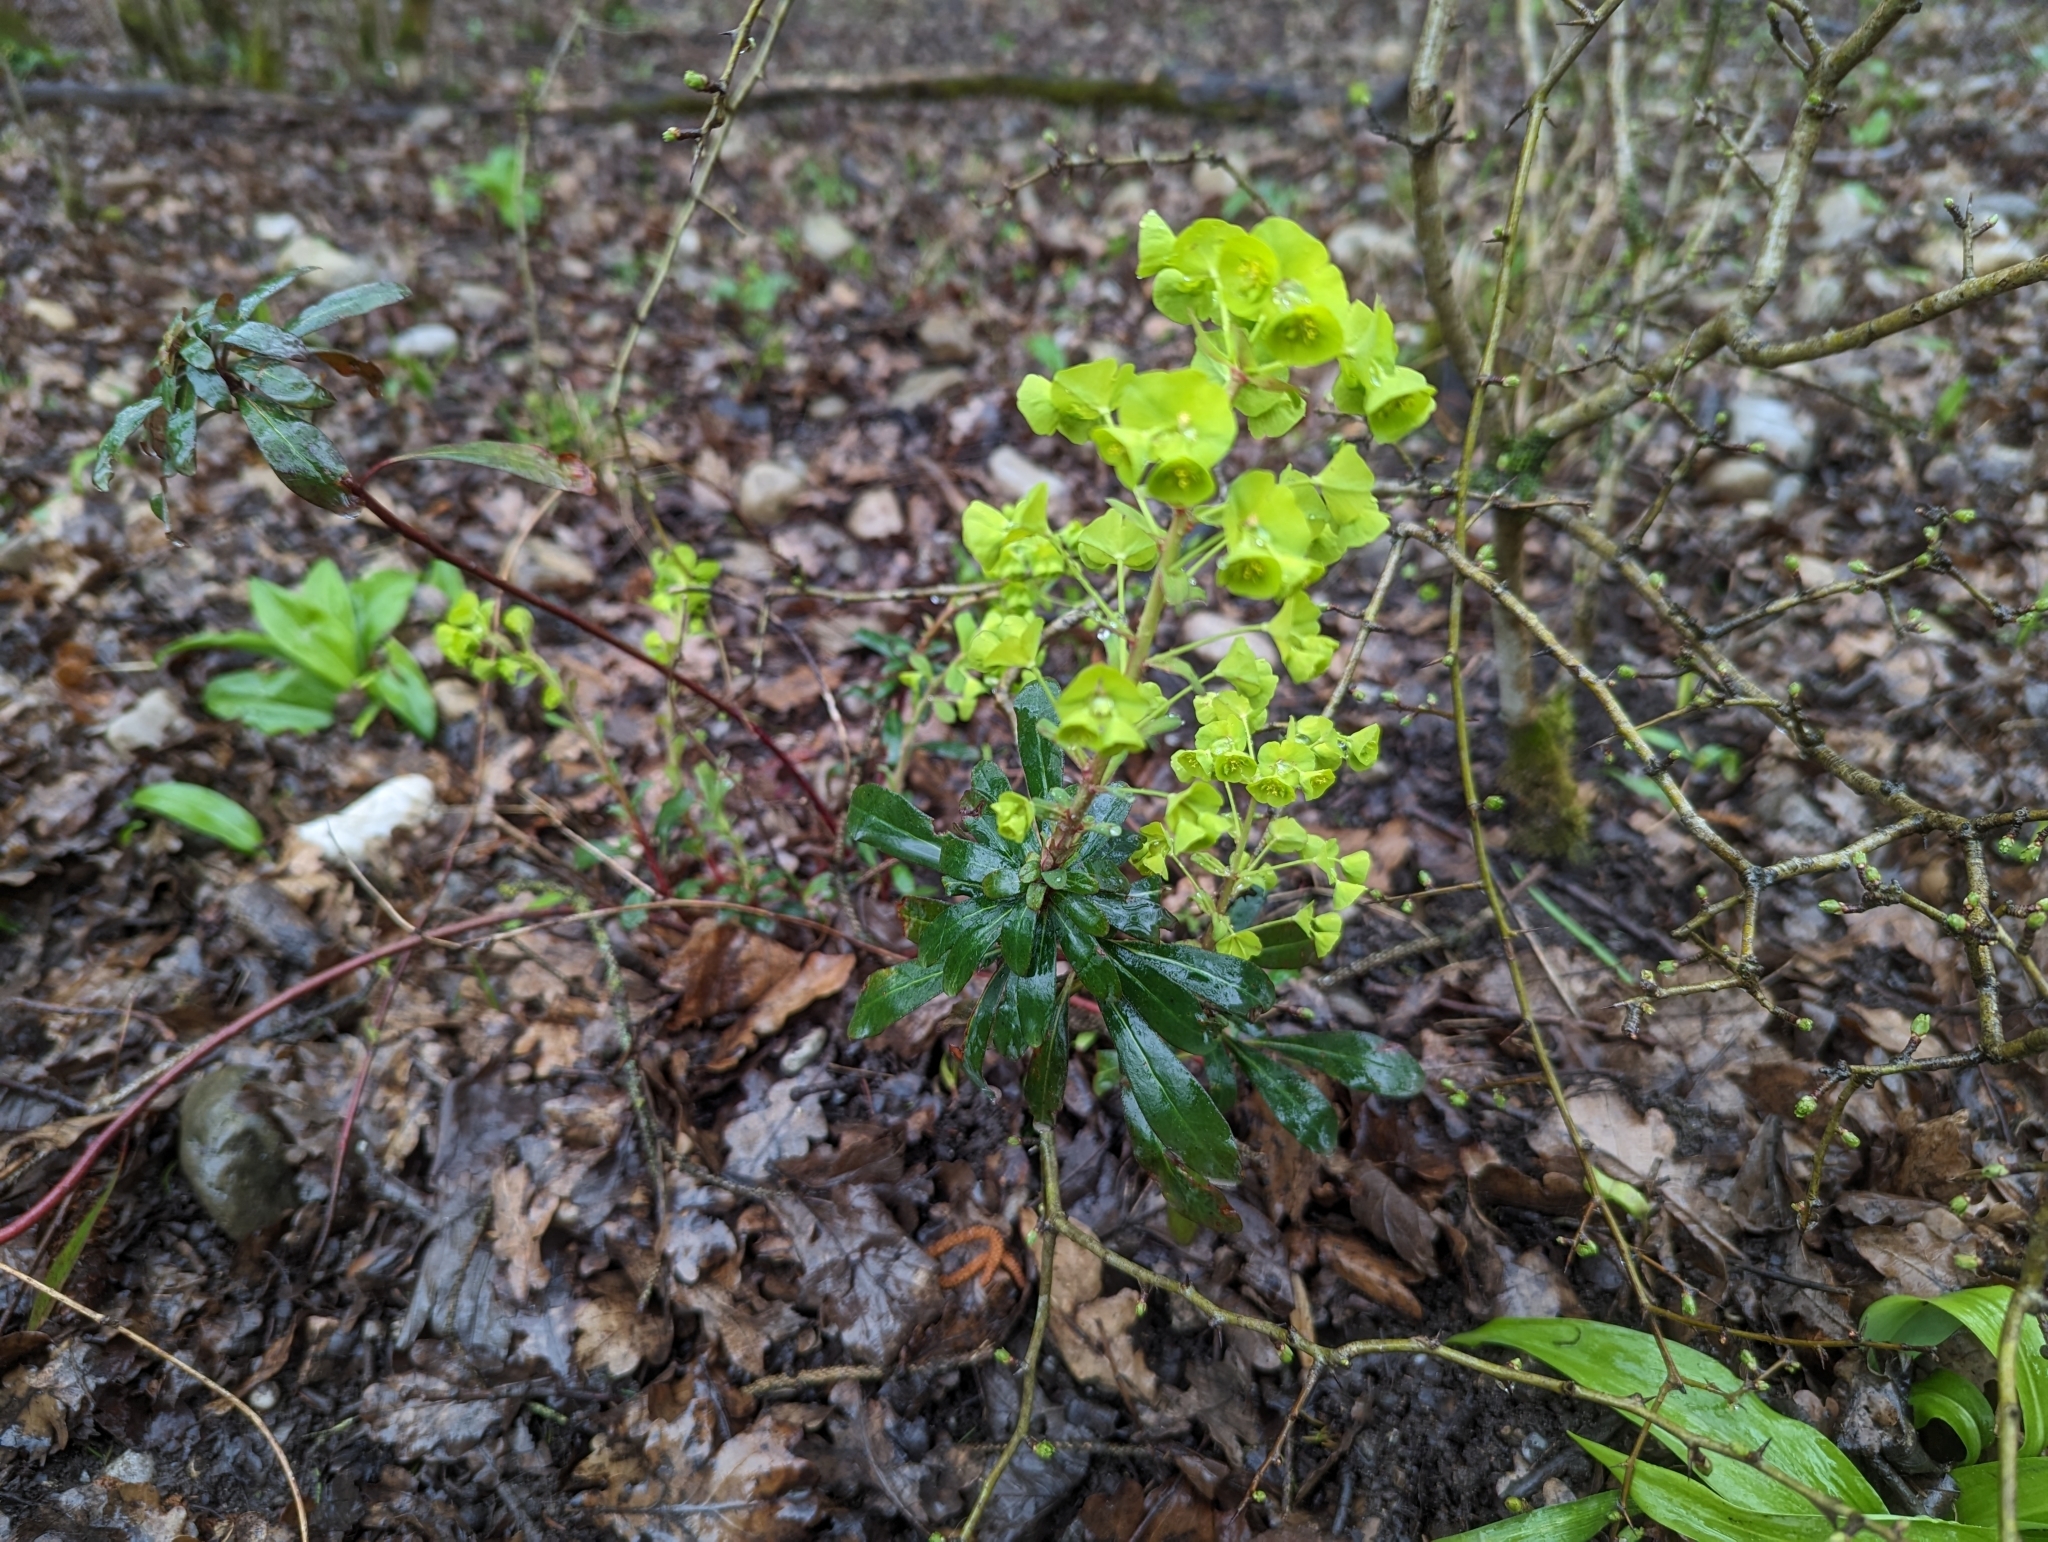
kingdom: Plantae
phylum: Tracheophyta
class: Magnoliopsida
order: Malpighiales
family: Euphorbiaceae
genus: Euphorbia
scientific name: Euphorbia amygdaloides
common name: Wood spurge
